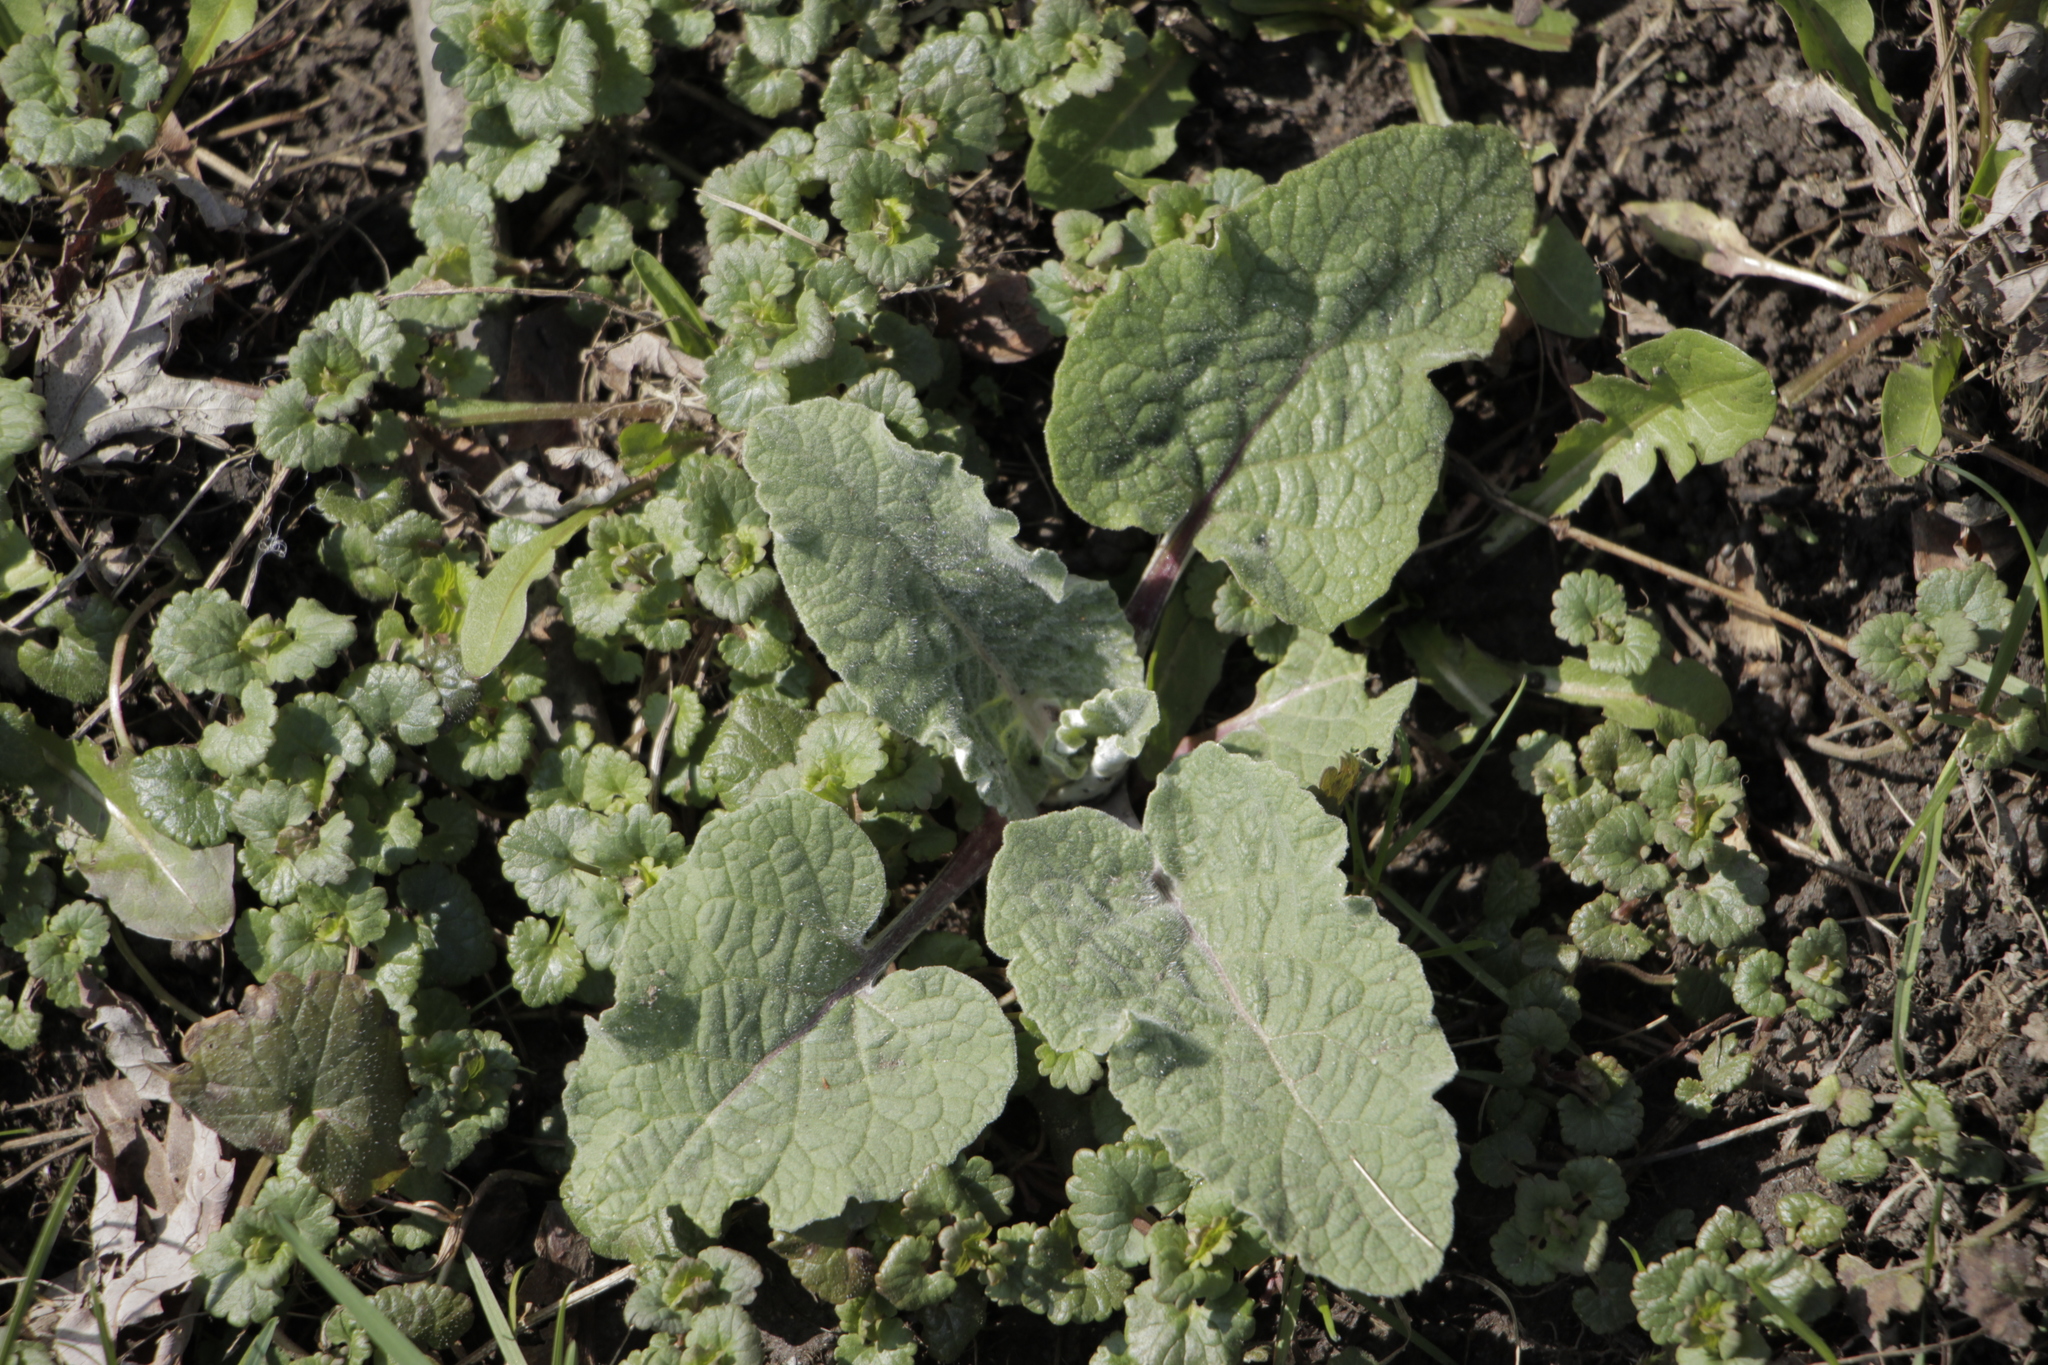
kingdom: Plantae
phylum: Tracheophyta
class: Magnoliopsida
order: Asterales
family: Asteraceae
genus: Arctium
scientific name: Arctium
